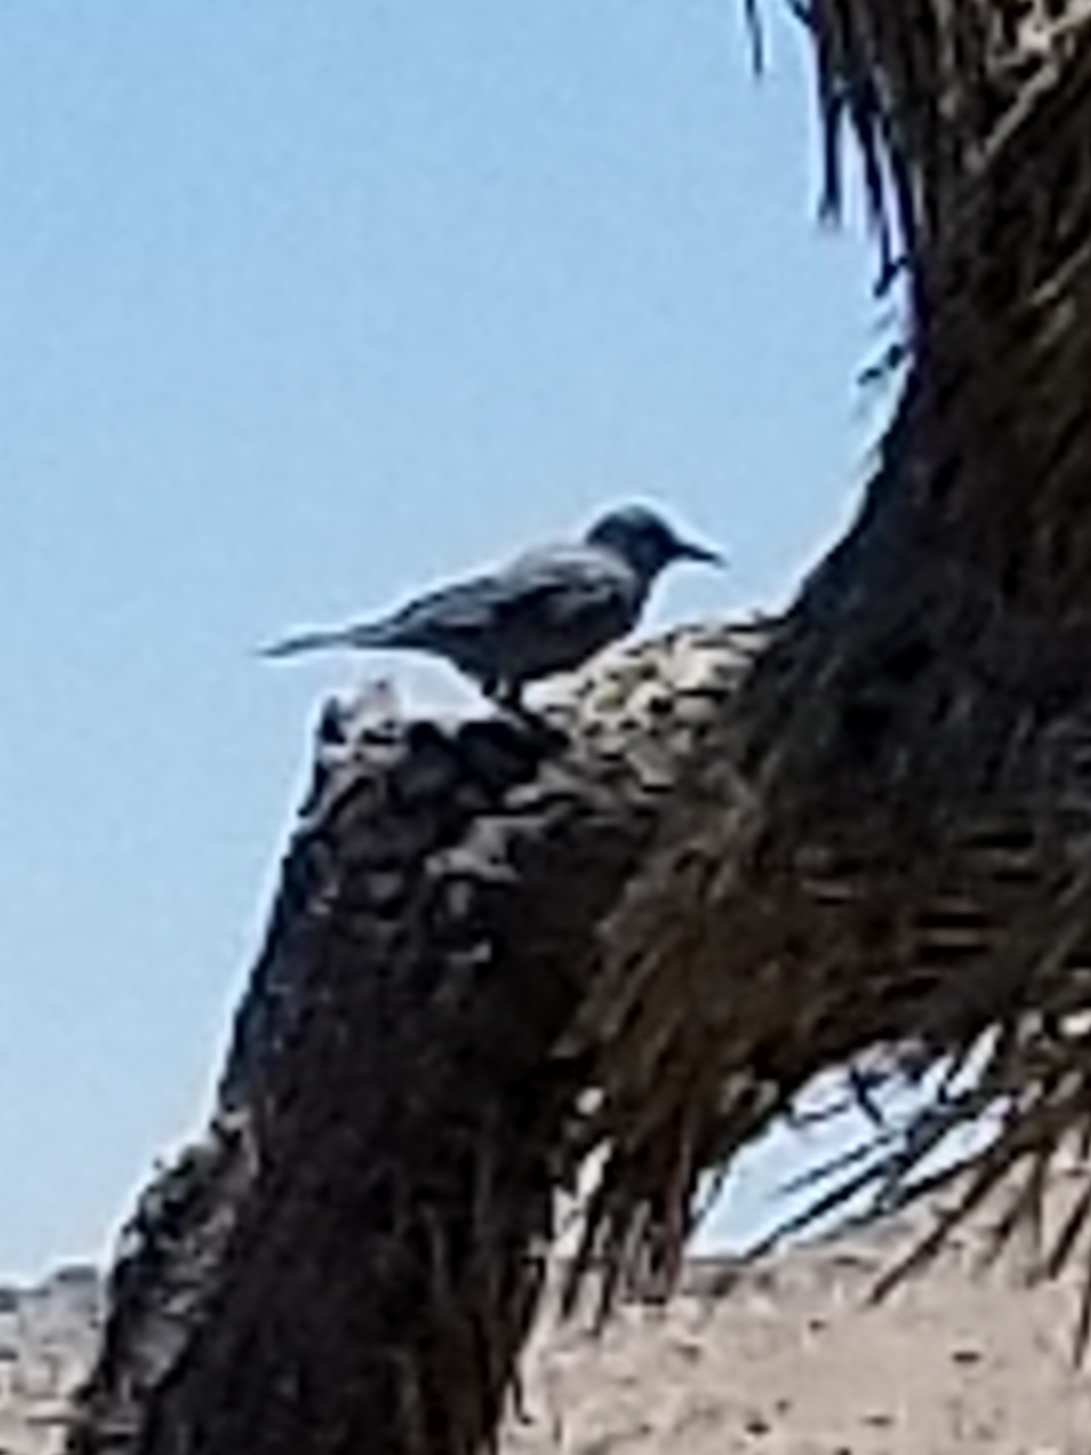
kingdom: Animalia
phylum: Chordata
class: Aves
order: Passeriformes
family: Corvidae
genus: Gymnorhinus
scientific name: Gymnorhinus cyanocephalus
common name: Pinyon jay
